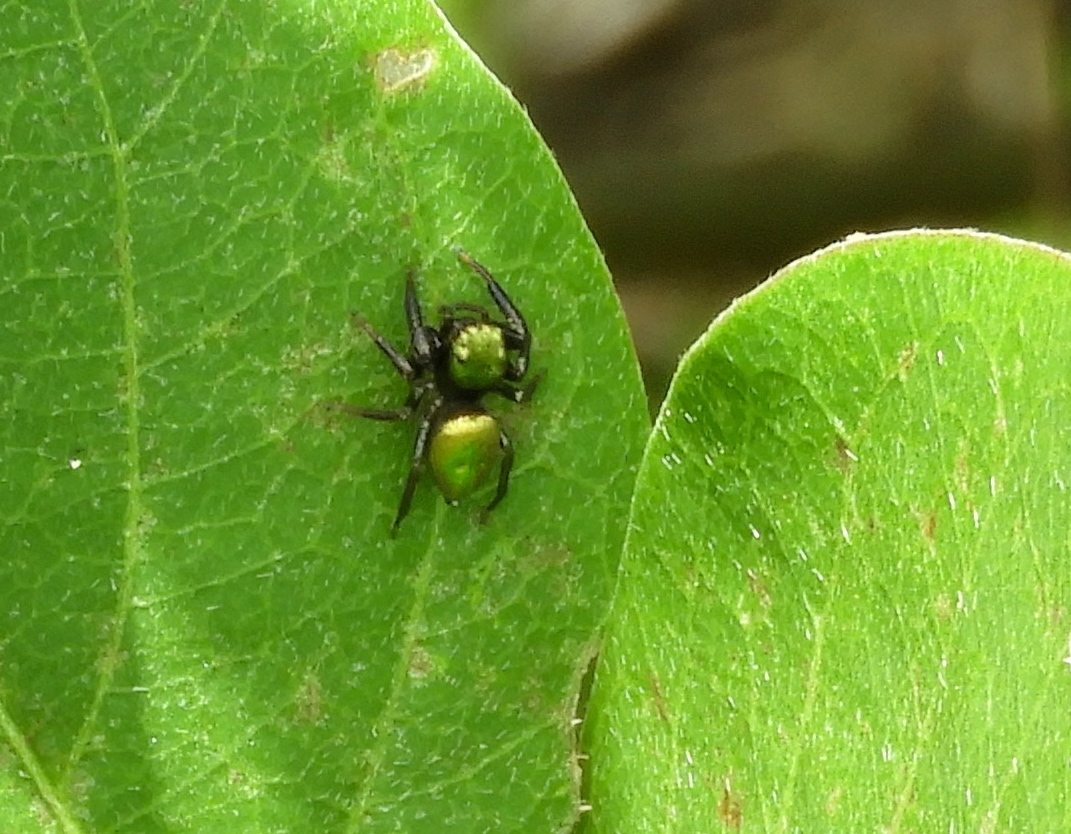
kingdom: Animalia
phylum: Arthropoda
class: Arachnida
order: Araneae
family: Salticidae
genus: Messua
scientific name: Messua
